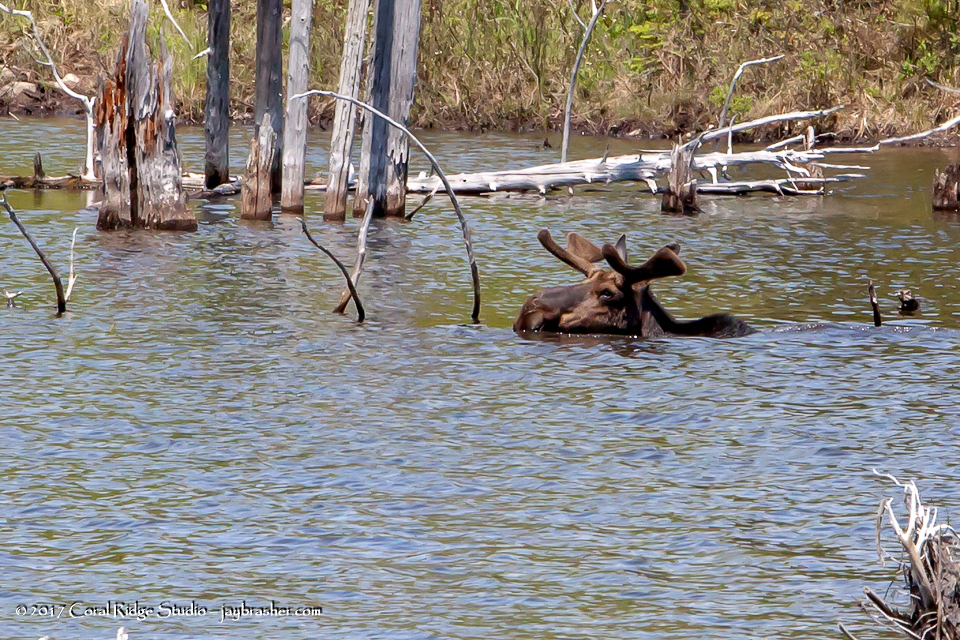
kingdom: Animalia
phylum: Chordata
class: Mammalia
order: Artiodactyla
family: Cervidae
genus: Alces
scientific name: Alces alces
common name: Moose
